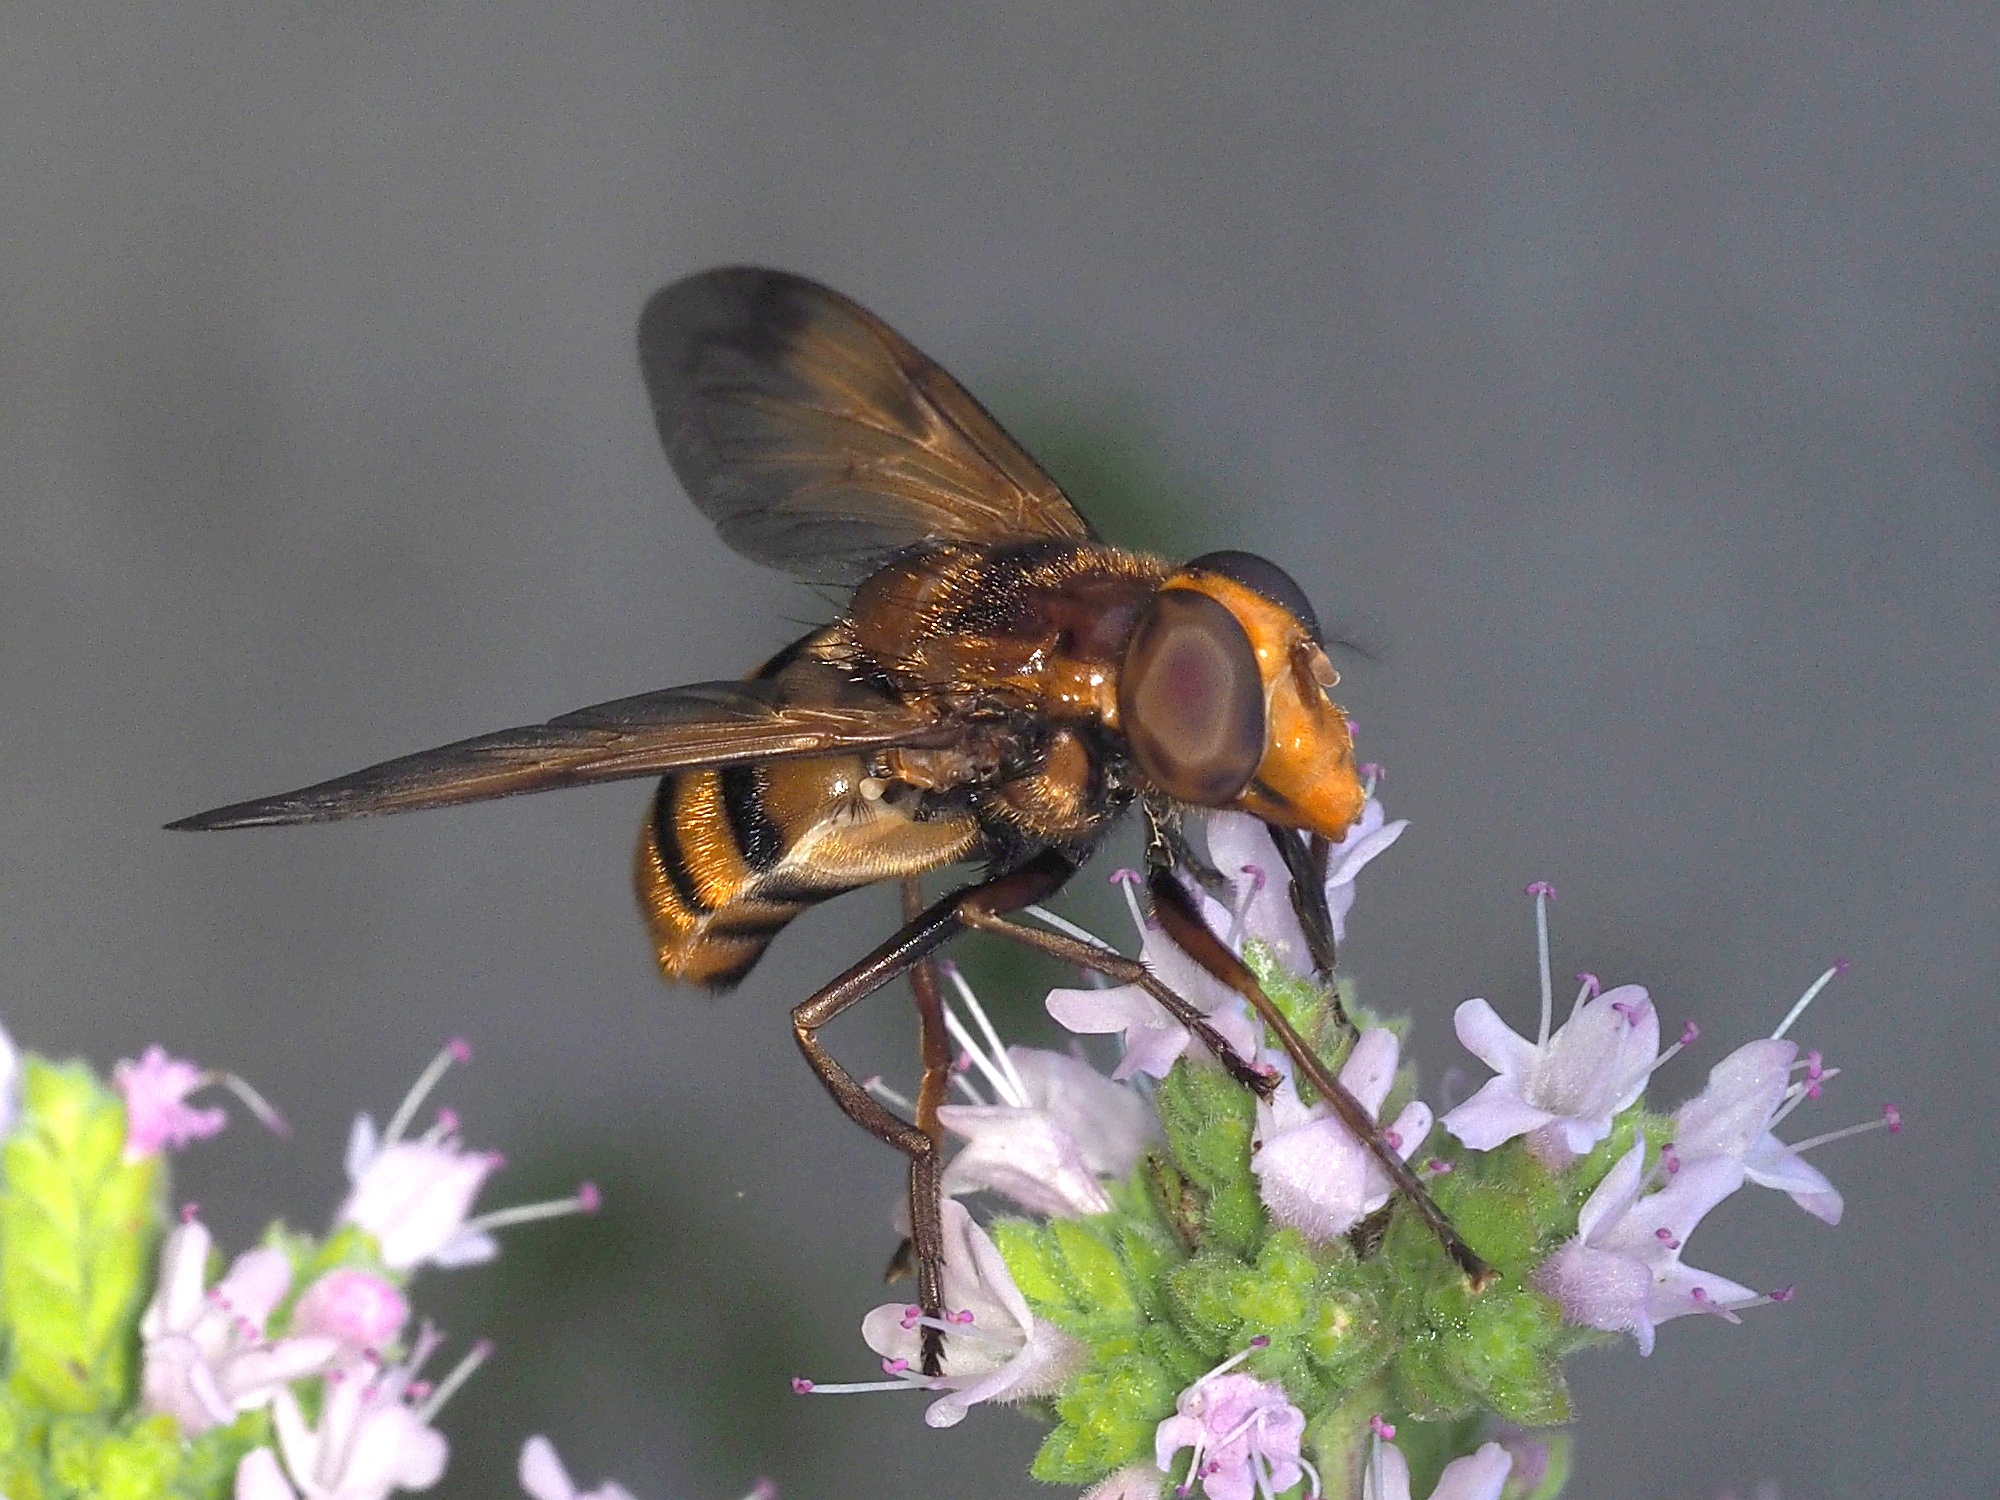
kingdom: Animalia
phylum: Arthropoda
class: Insecta
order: Diptera
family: Syrphidae
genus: Volucella
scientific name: Volucella zonaria
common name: Hornet hoverfly
